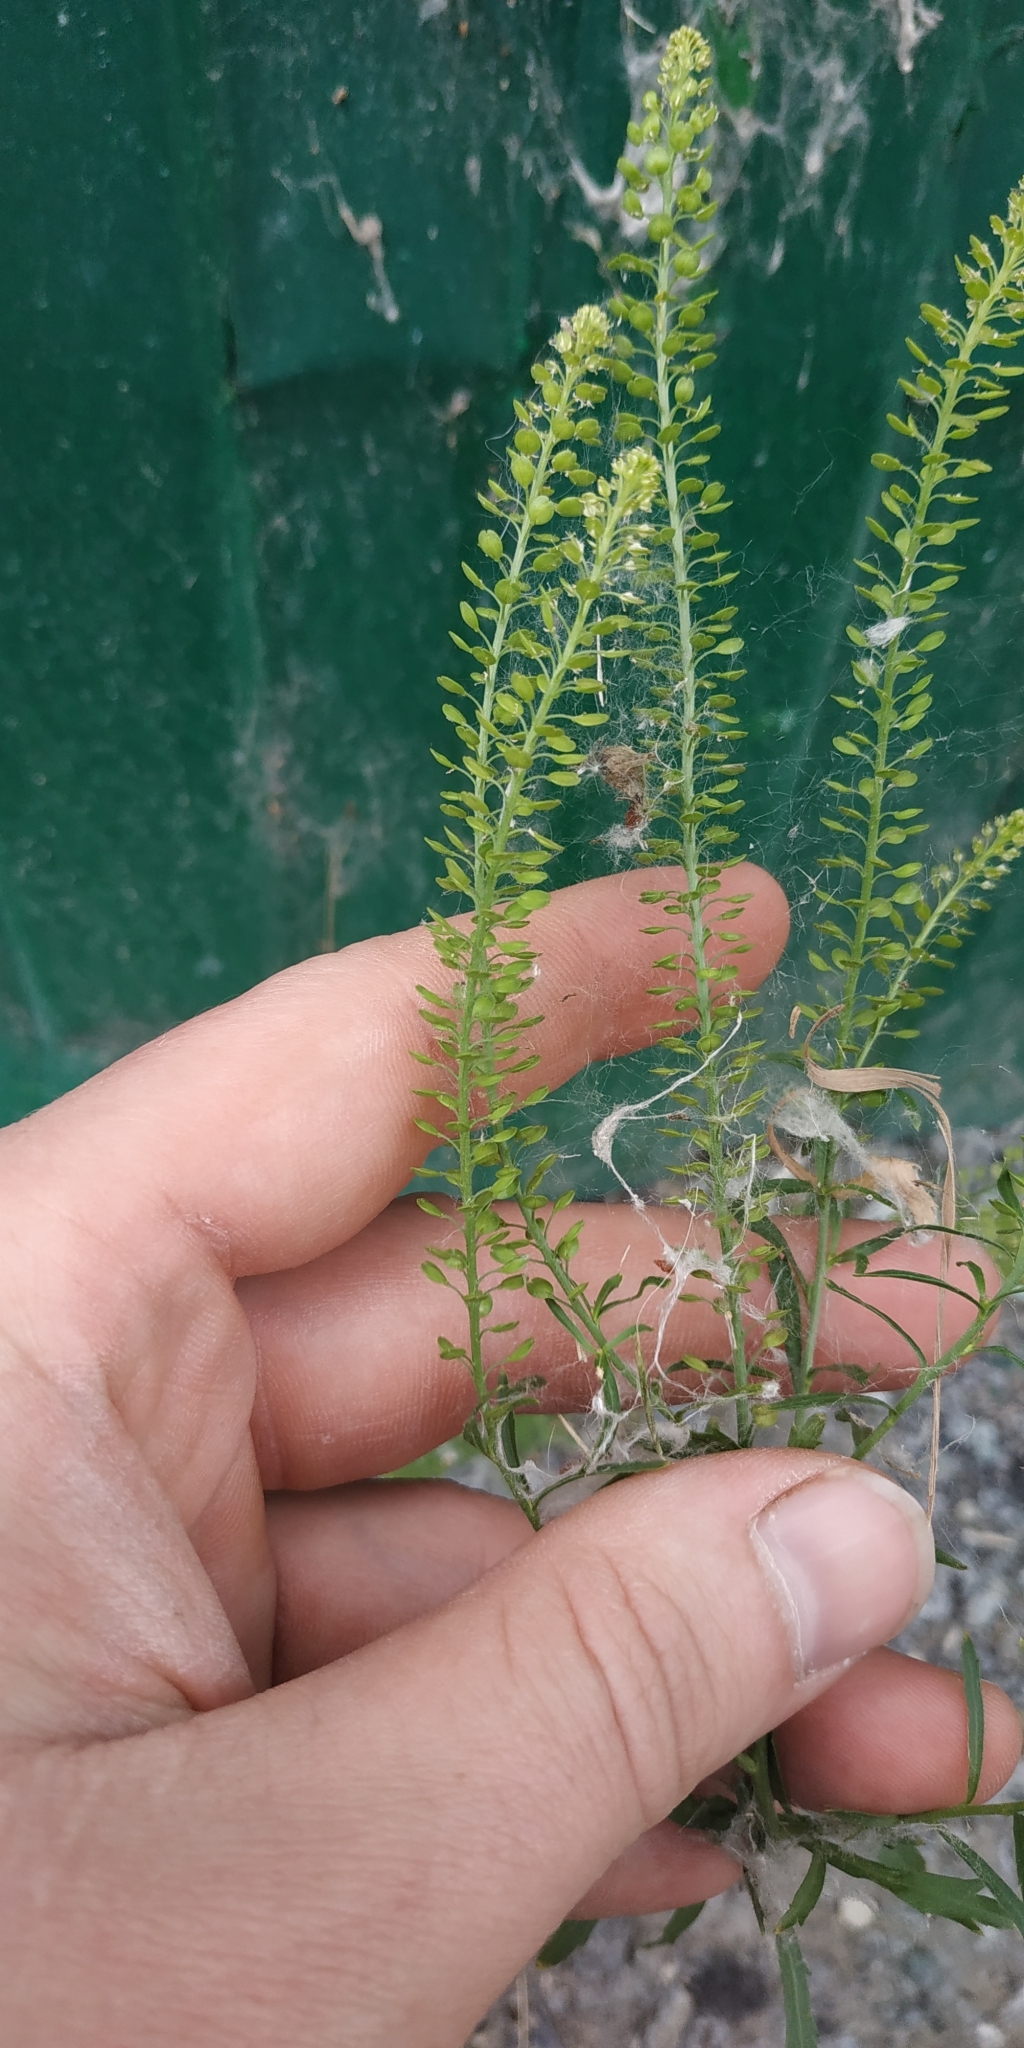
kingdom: Plantae
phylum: Tracheophyta
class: Magnoliopsida
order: Brassicales
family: Brassicaceae
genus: Lepidium
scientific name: Lepidium densiflorum
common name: Miner's pepperwort
